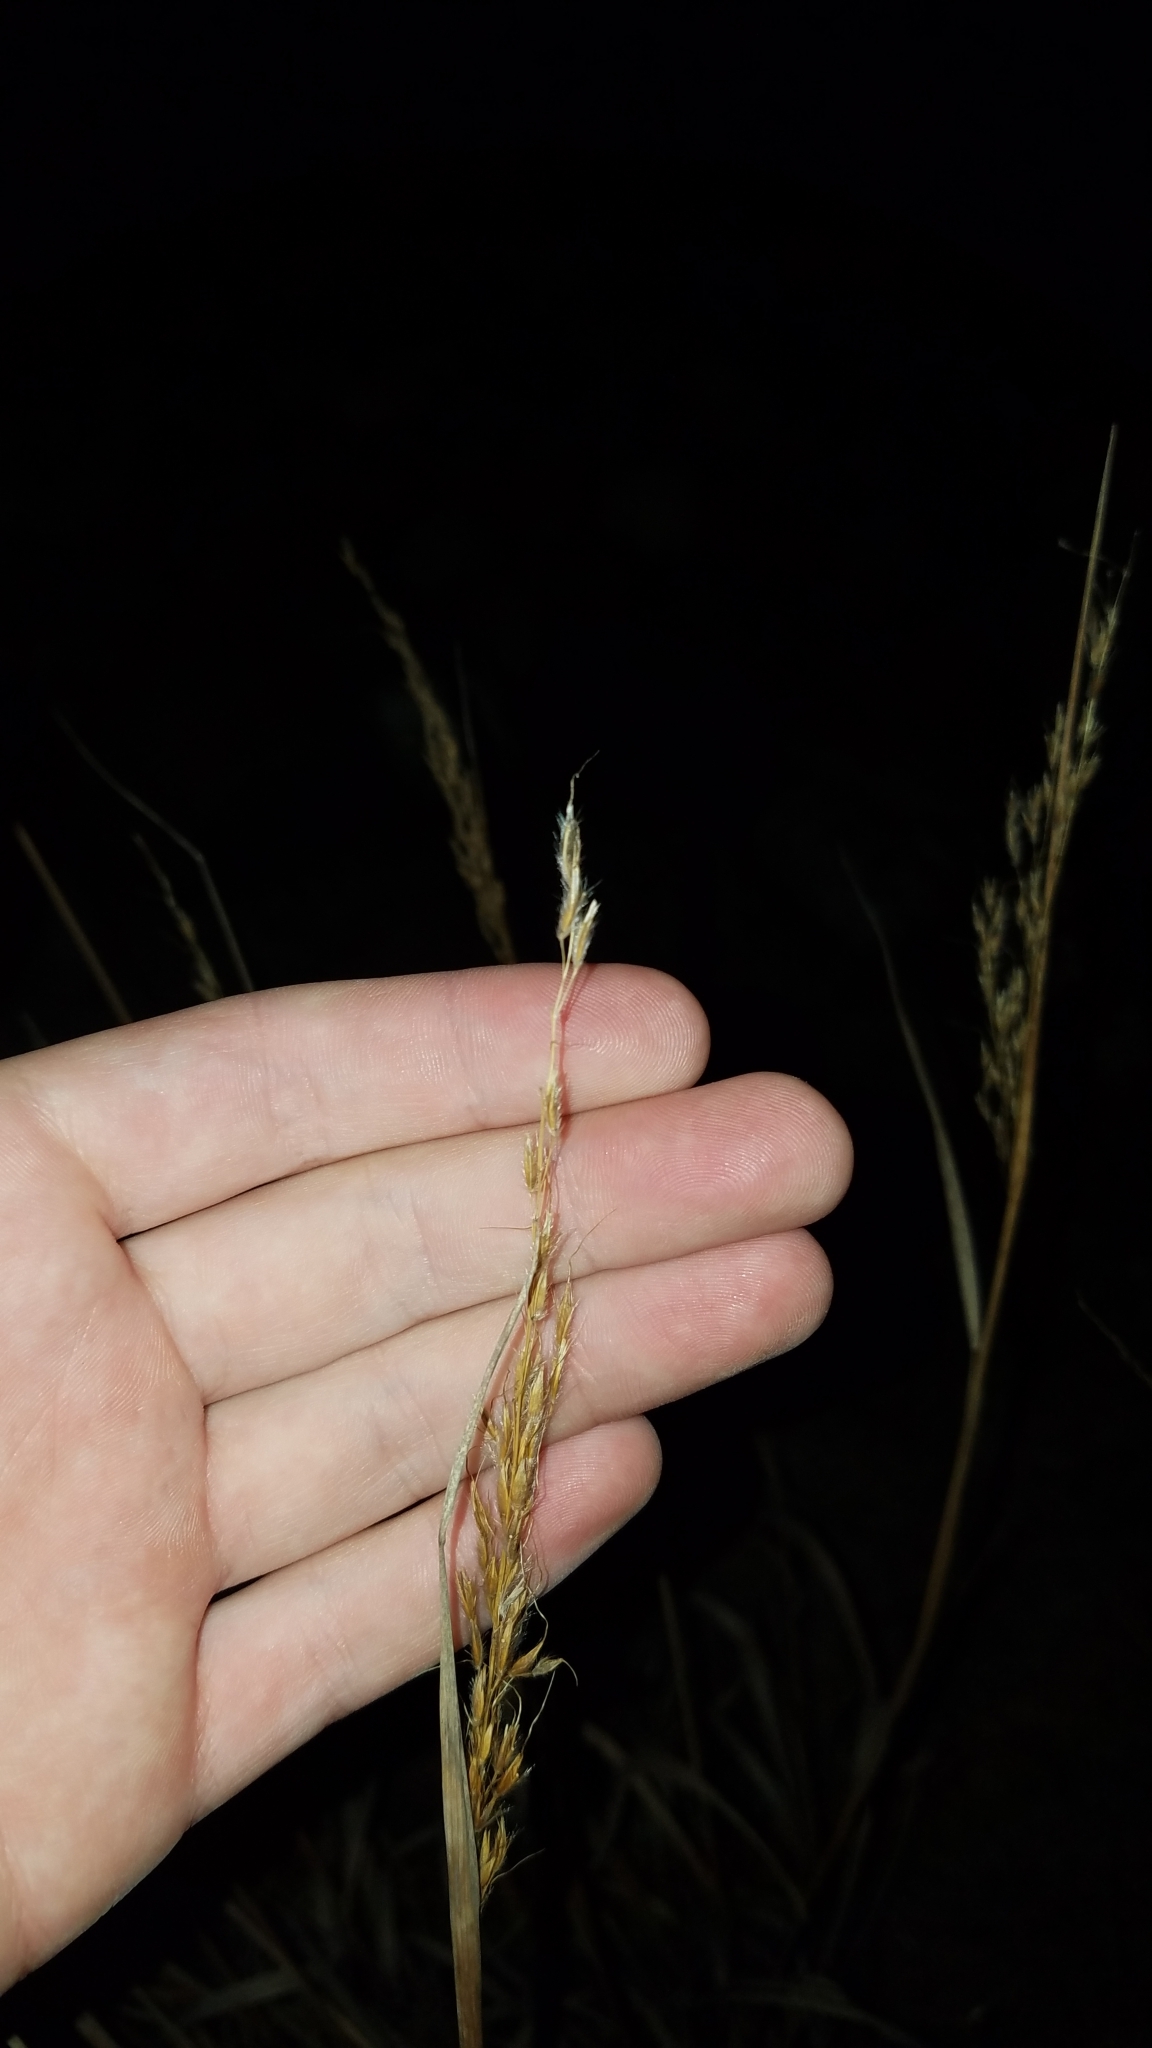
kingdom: Plantae
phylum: Tracheophyta
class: Liliopsida
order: Poales
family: Poaceae
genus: Sorghastrum
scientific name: Sorghastrum nutans
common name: Indian grass
